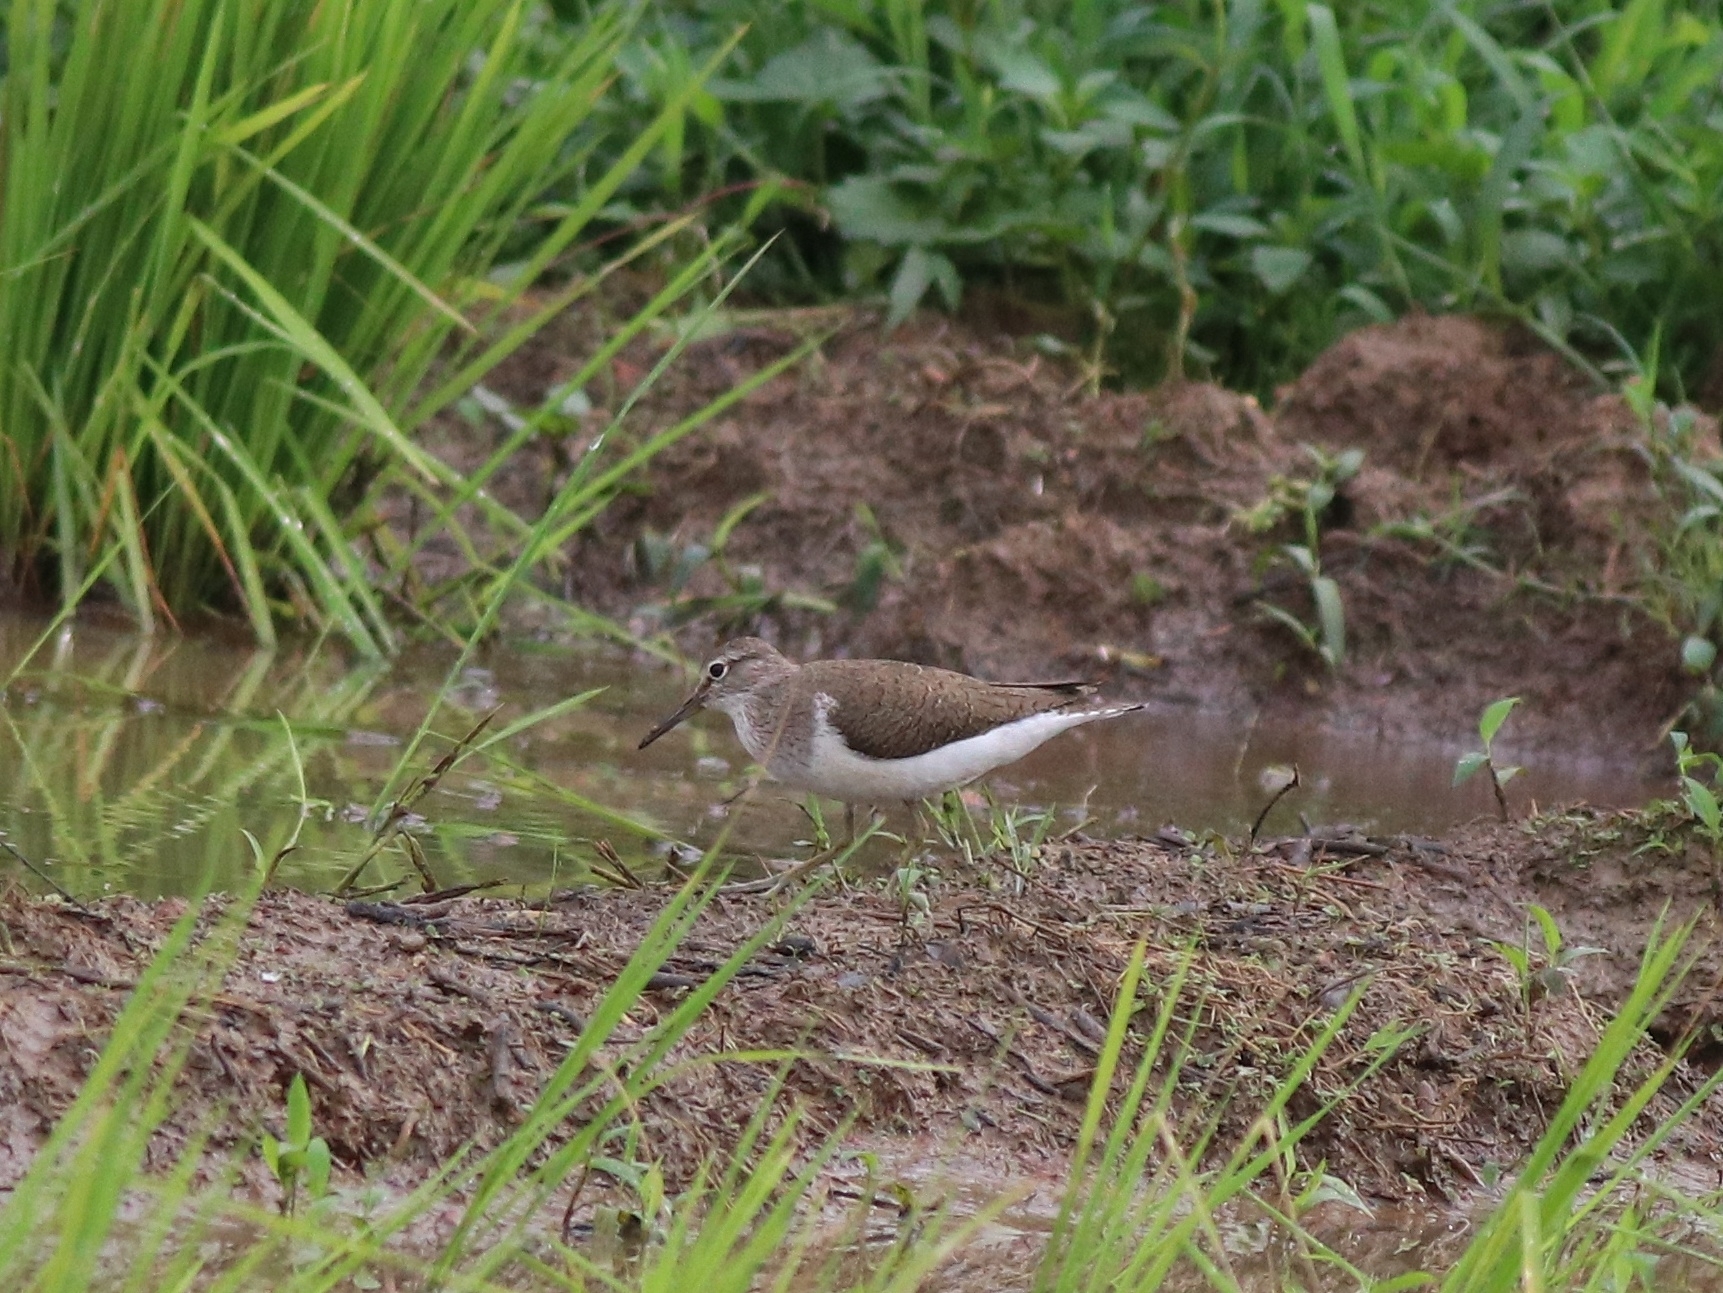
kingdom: Animalia
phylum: Chordata
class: Aves
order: Charadriiformes
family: Scolopacidae
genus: Actitis
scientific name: Actitis hypoleucos
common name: Common sandpiper
